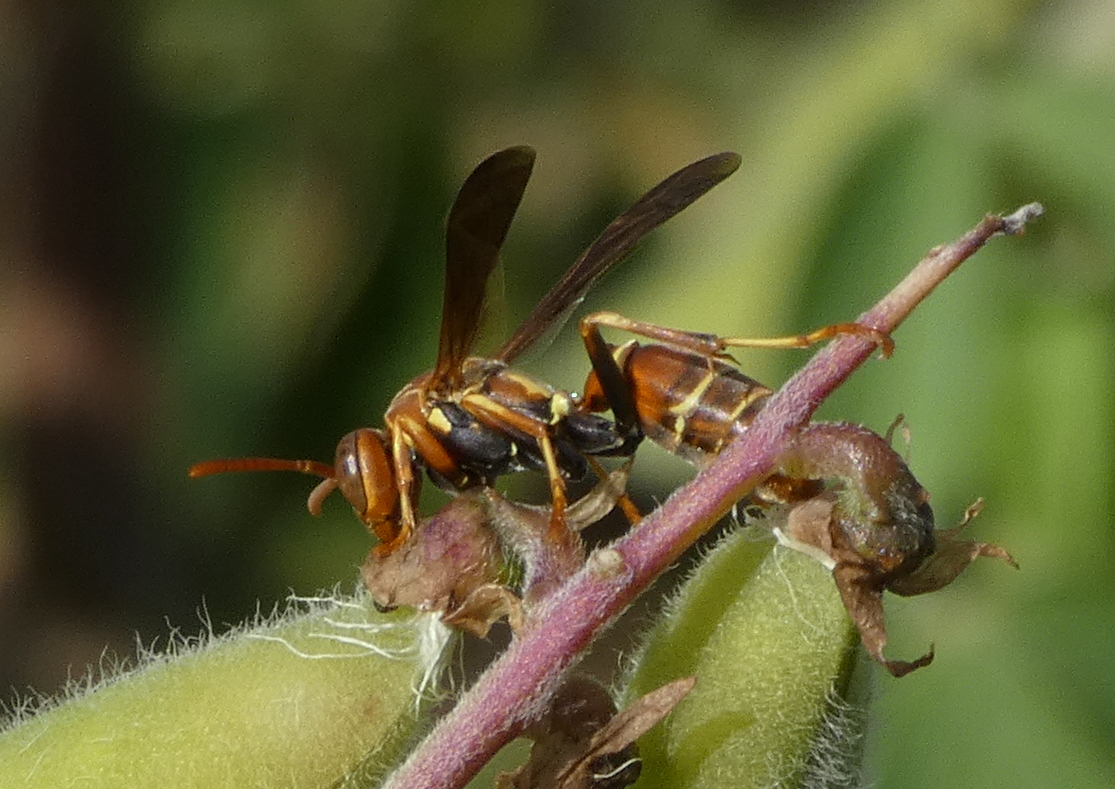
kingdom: Animalia
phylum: Arthropoda
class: Insecta
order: Hymenoptera
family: Eumenidae
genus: Polistes
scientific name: Polistes dorsalis
